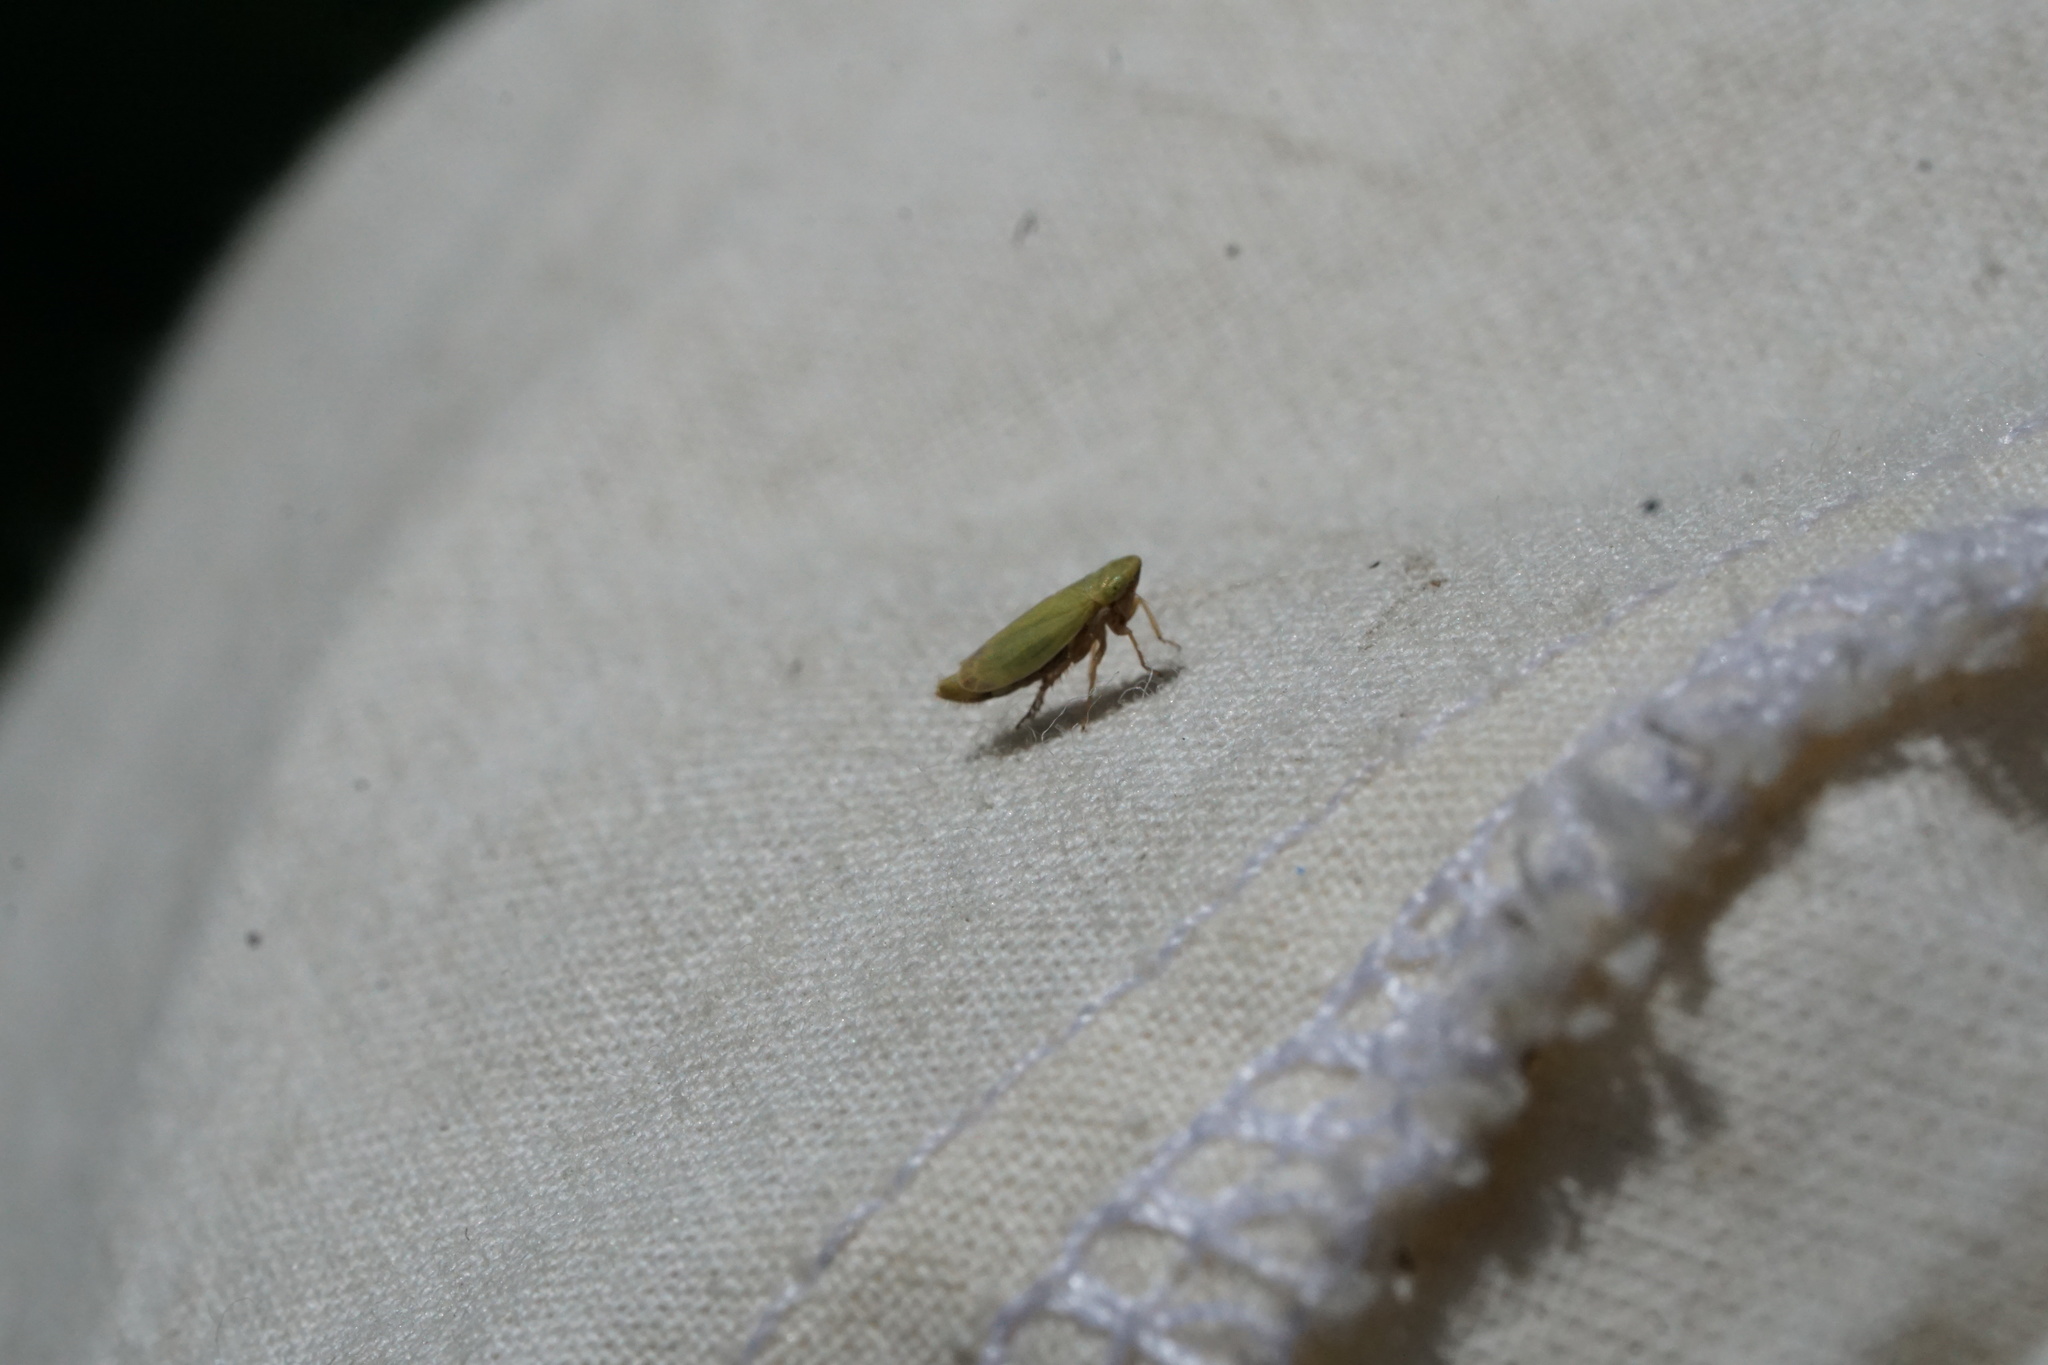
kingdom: Animalia
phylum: Arthropoda
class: Insecta
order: Hemiptera
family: Cicadellidae
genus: Sorhoanus
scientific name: Sorhoanus orientalis
